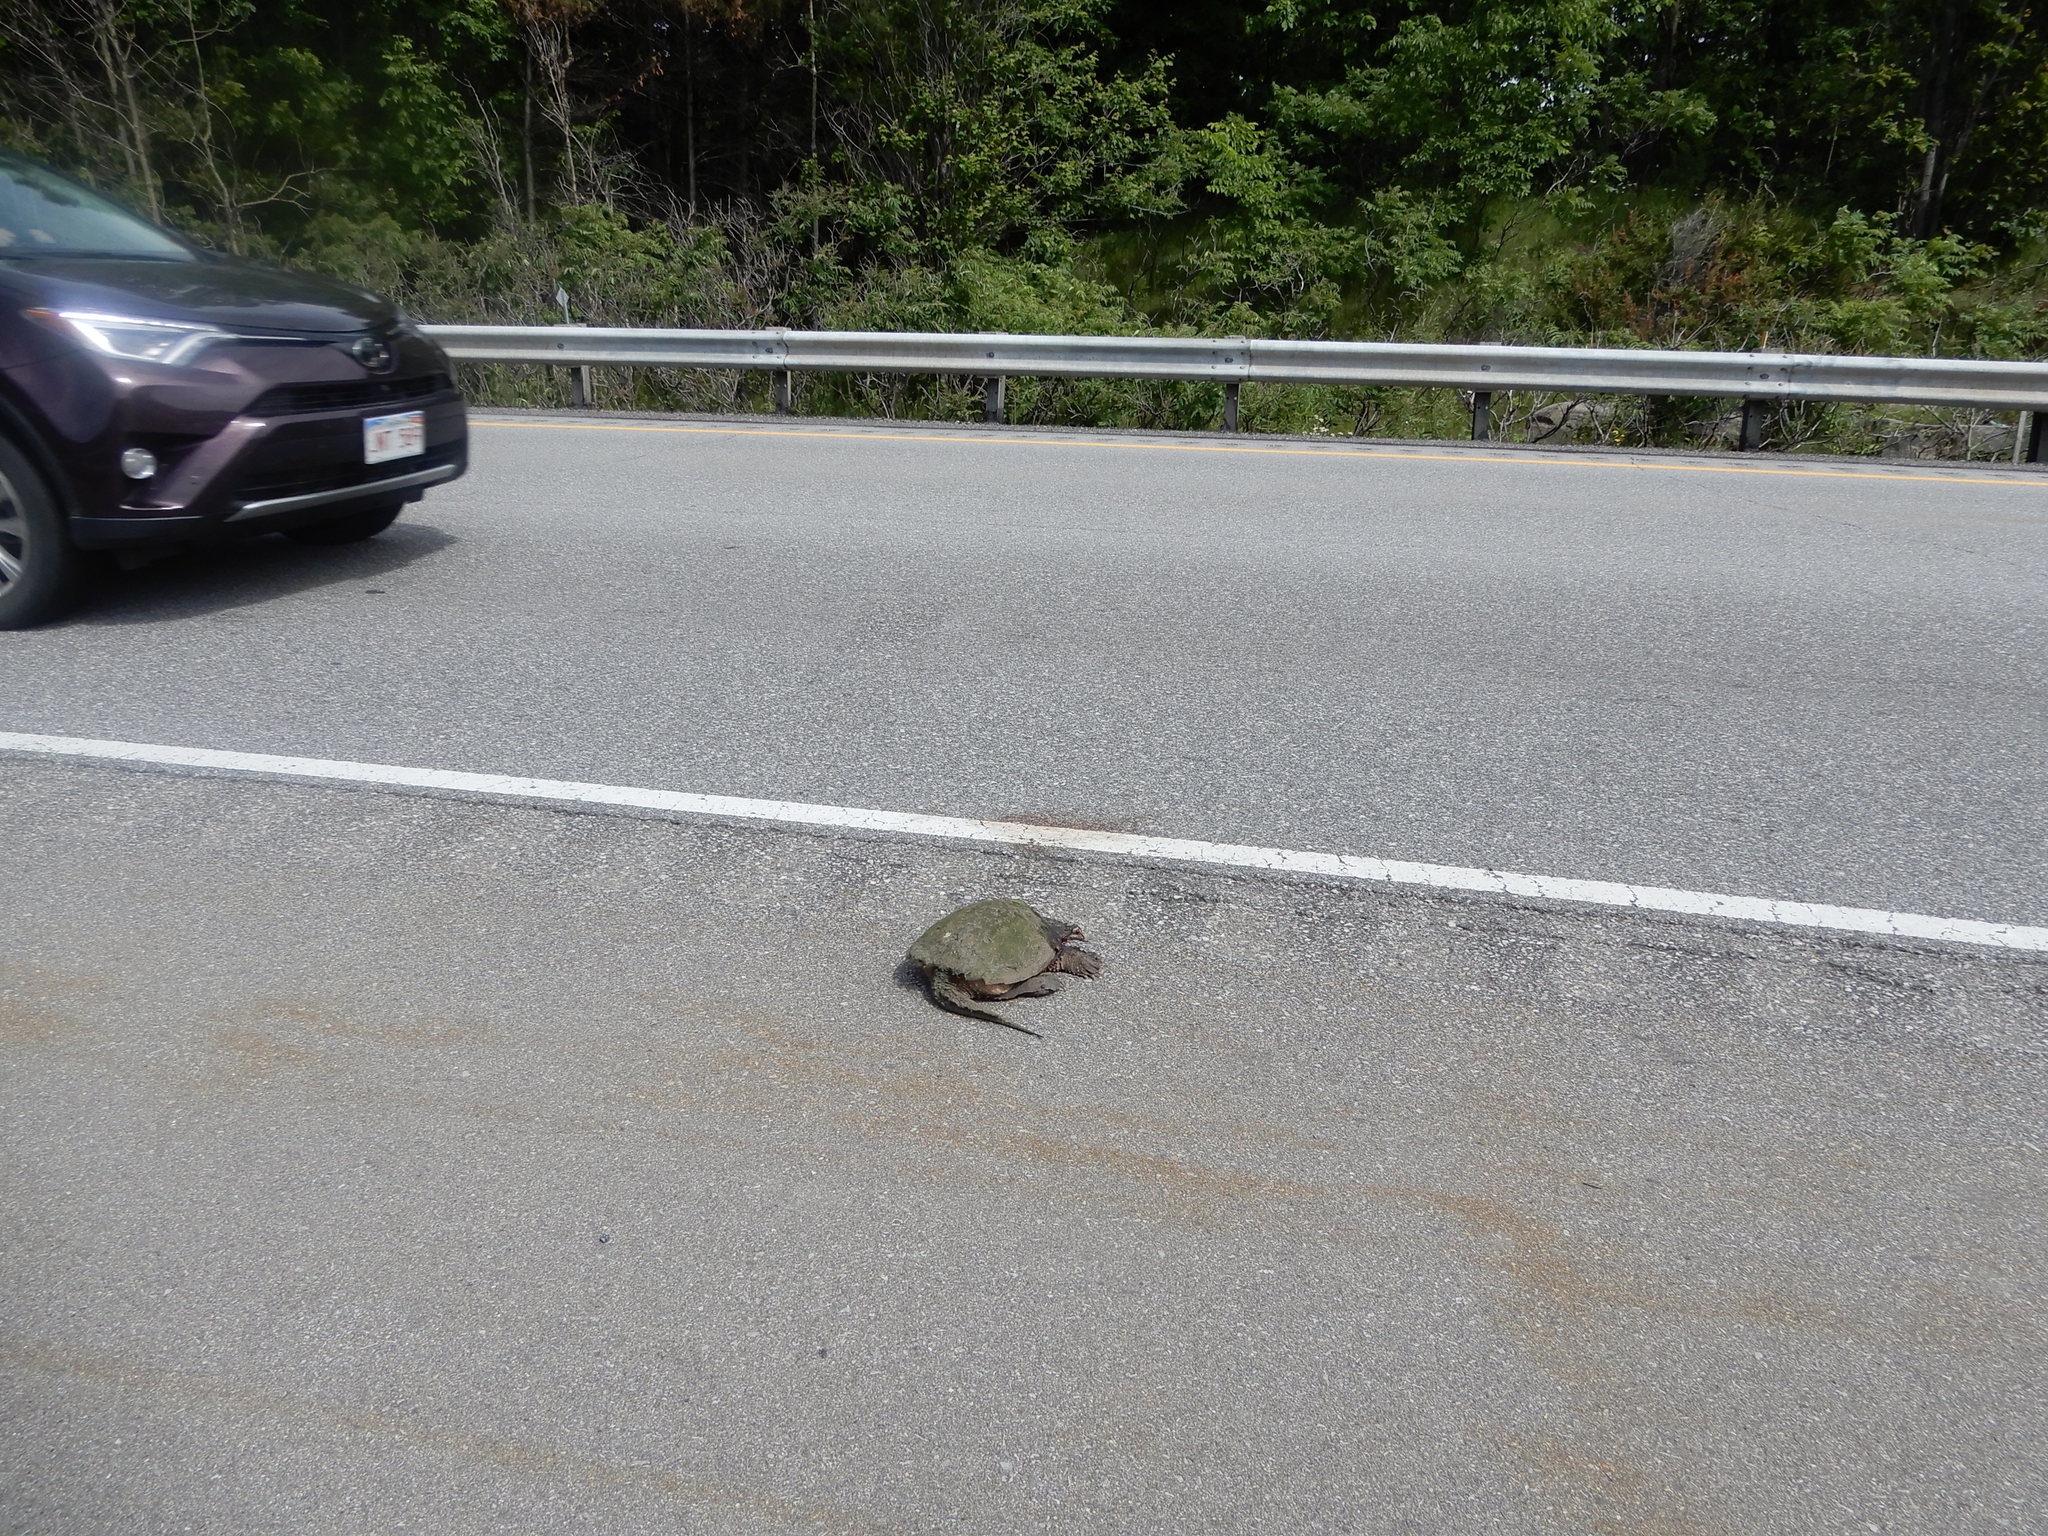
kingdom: Animalia
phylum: Chordata
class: Testudines
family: Chelydridae
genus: Chelydra
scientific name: Chelydra serpentina
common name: Common snapping turtle
